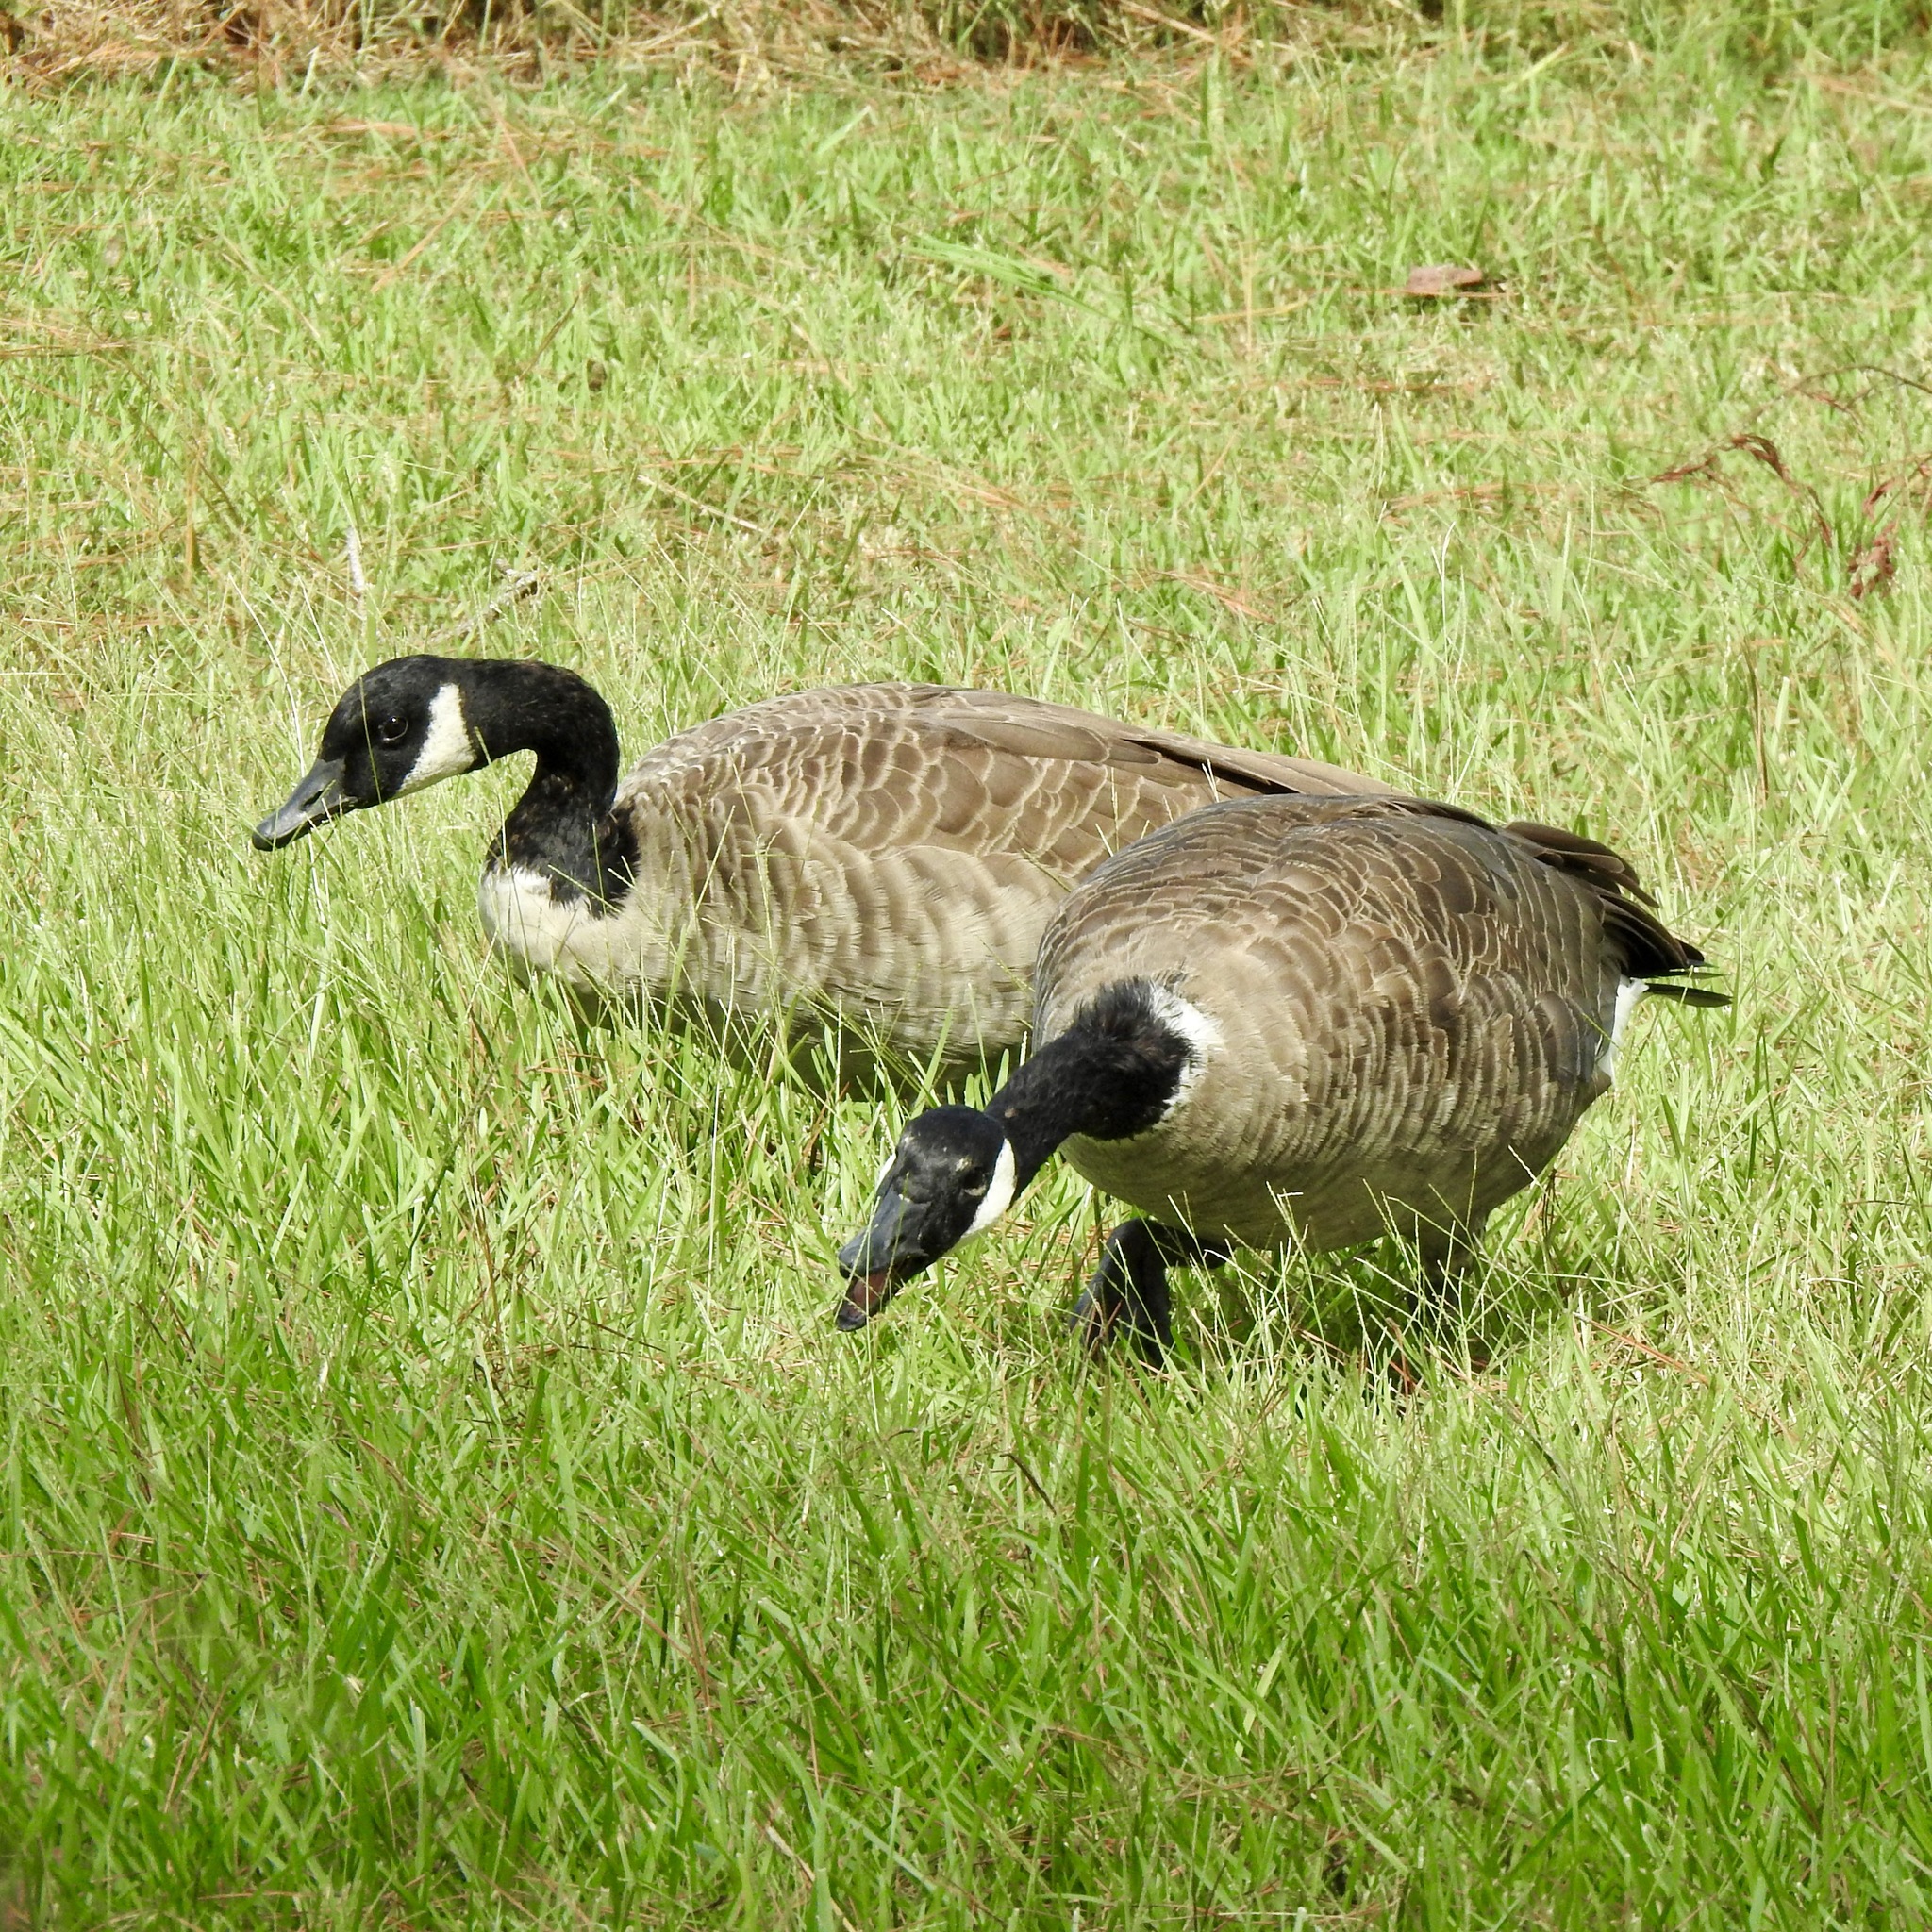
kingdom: Animalia
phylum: Chordata
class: Aves
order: Anseriformes
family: Anatidae
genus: Branta
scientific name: Branta canadensis
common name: Canada goose
